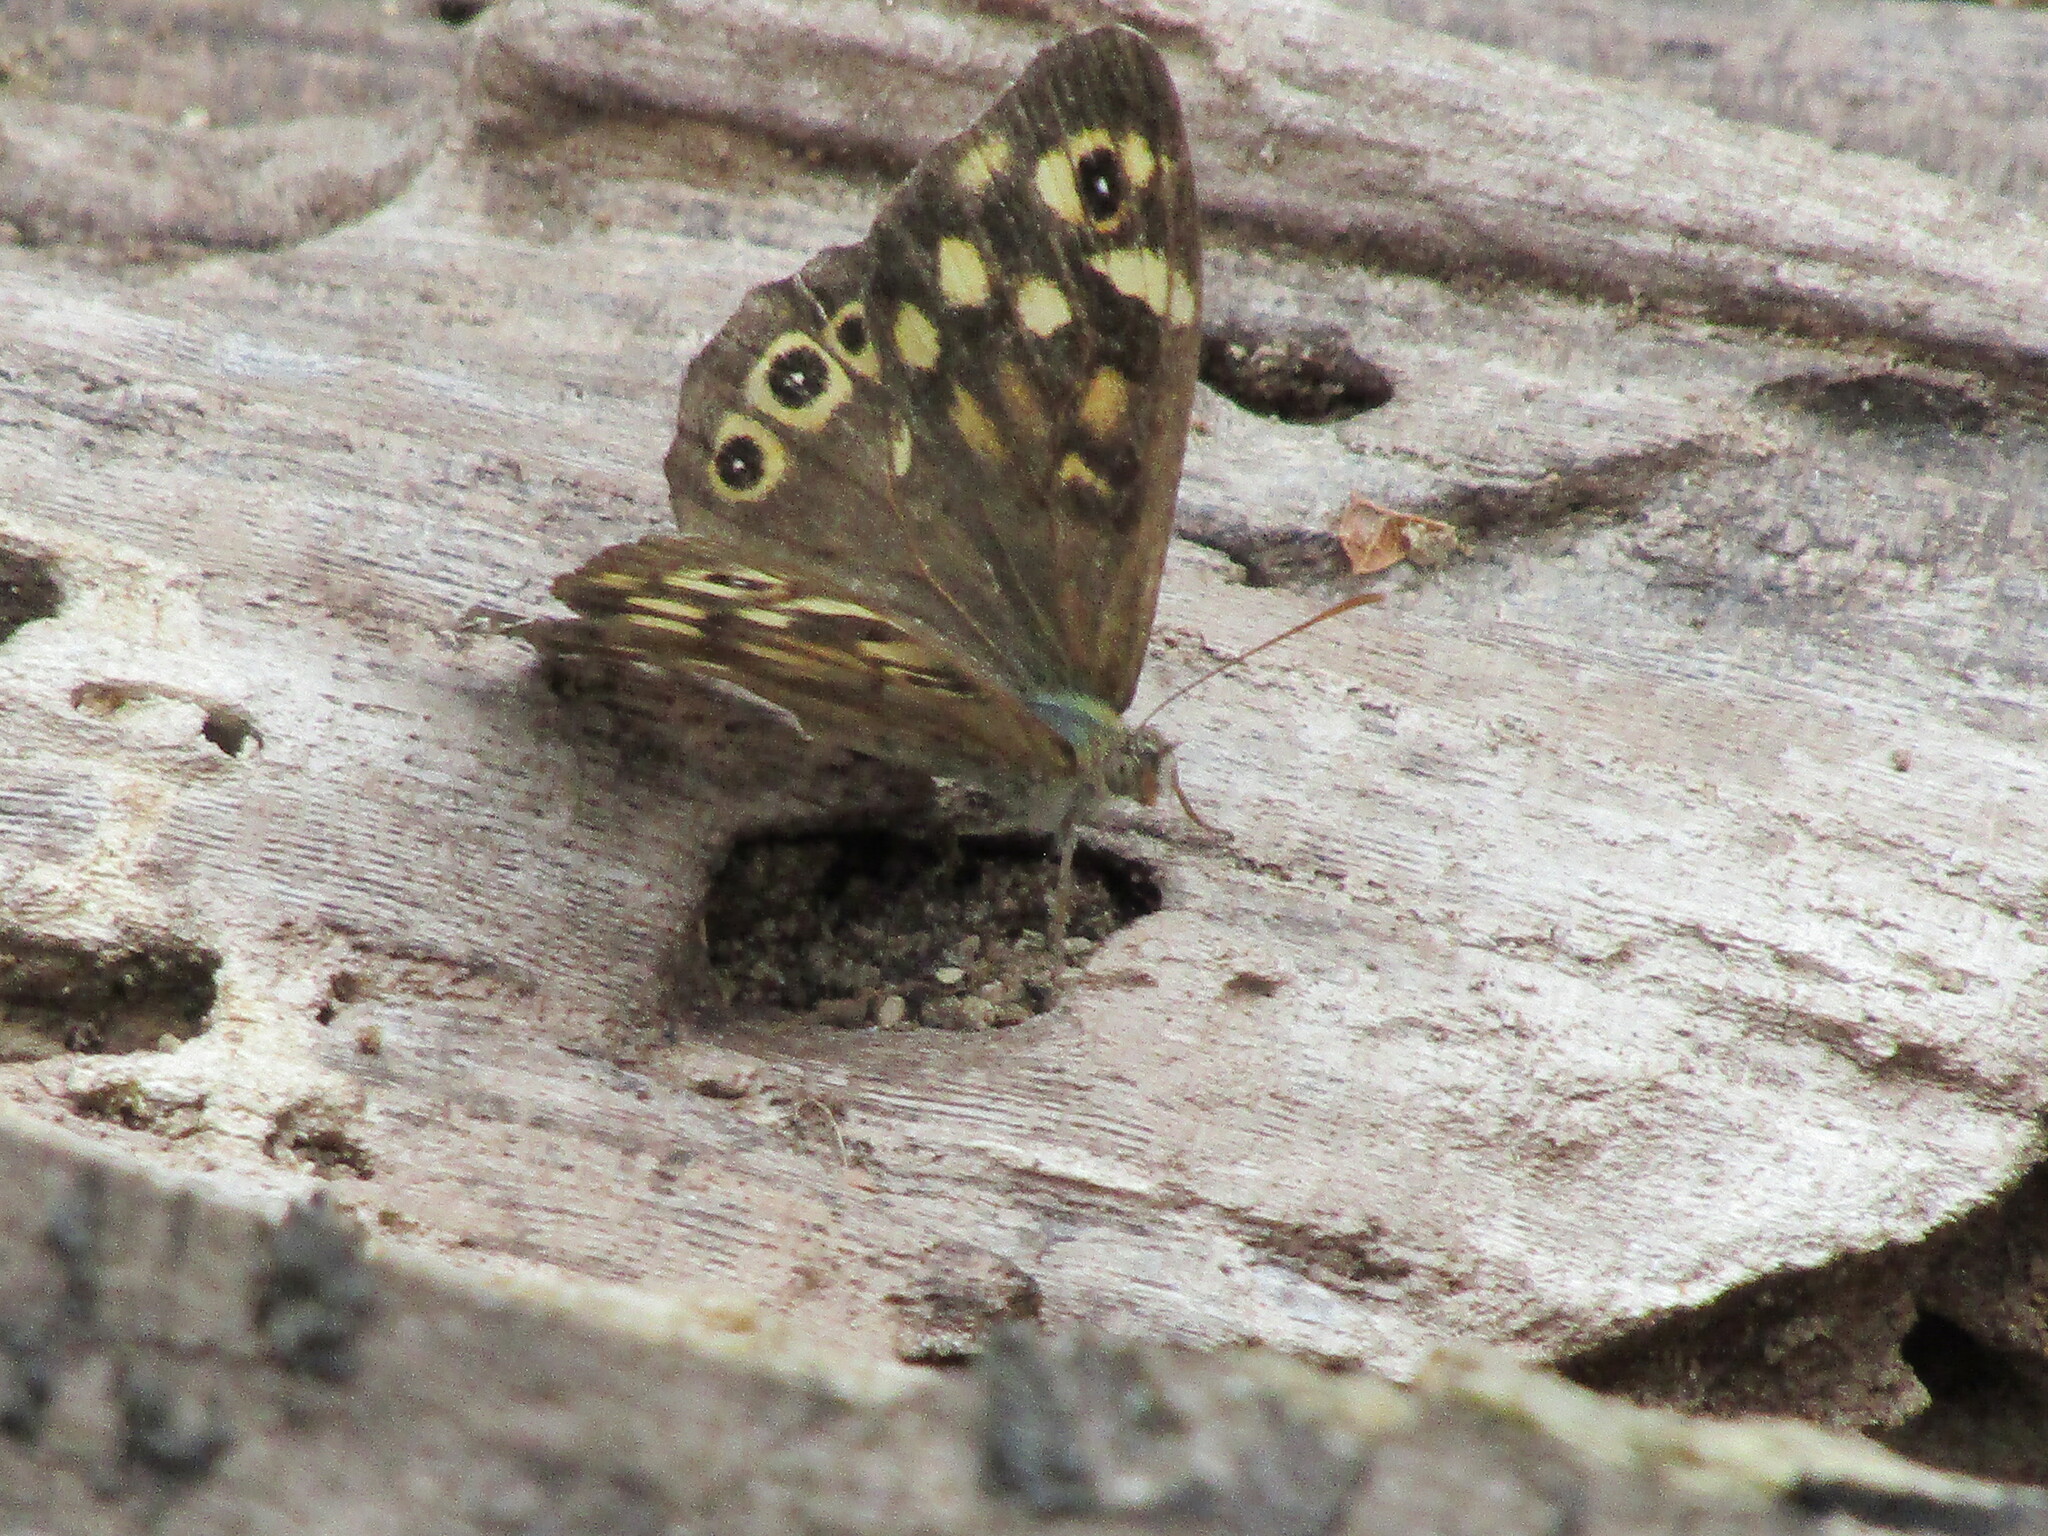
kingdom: Animalia
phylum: Arthropoda
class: Insecta
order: Lepidoptera
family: Nymphalidae
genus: Pararge
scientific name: Pararge aegeria
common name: Speckled wood
